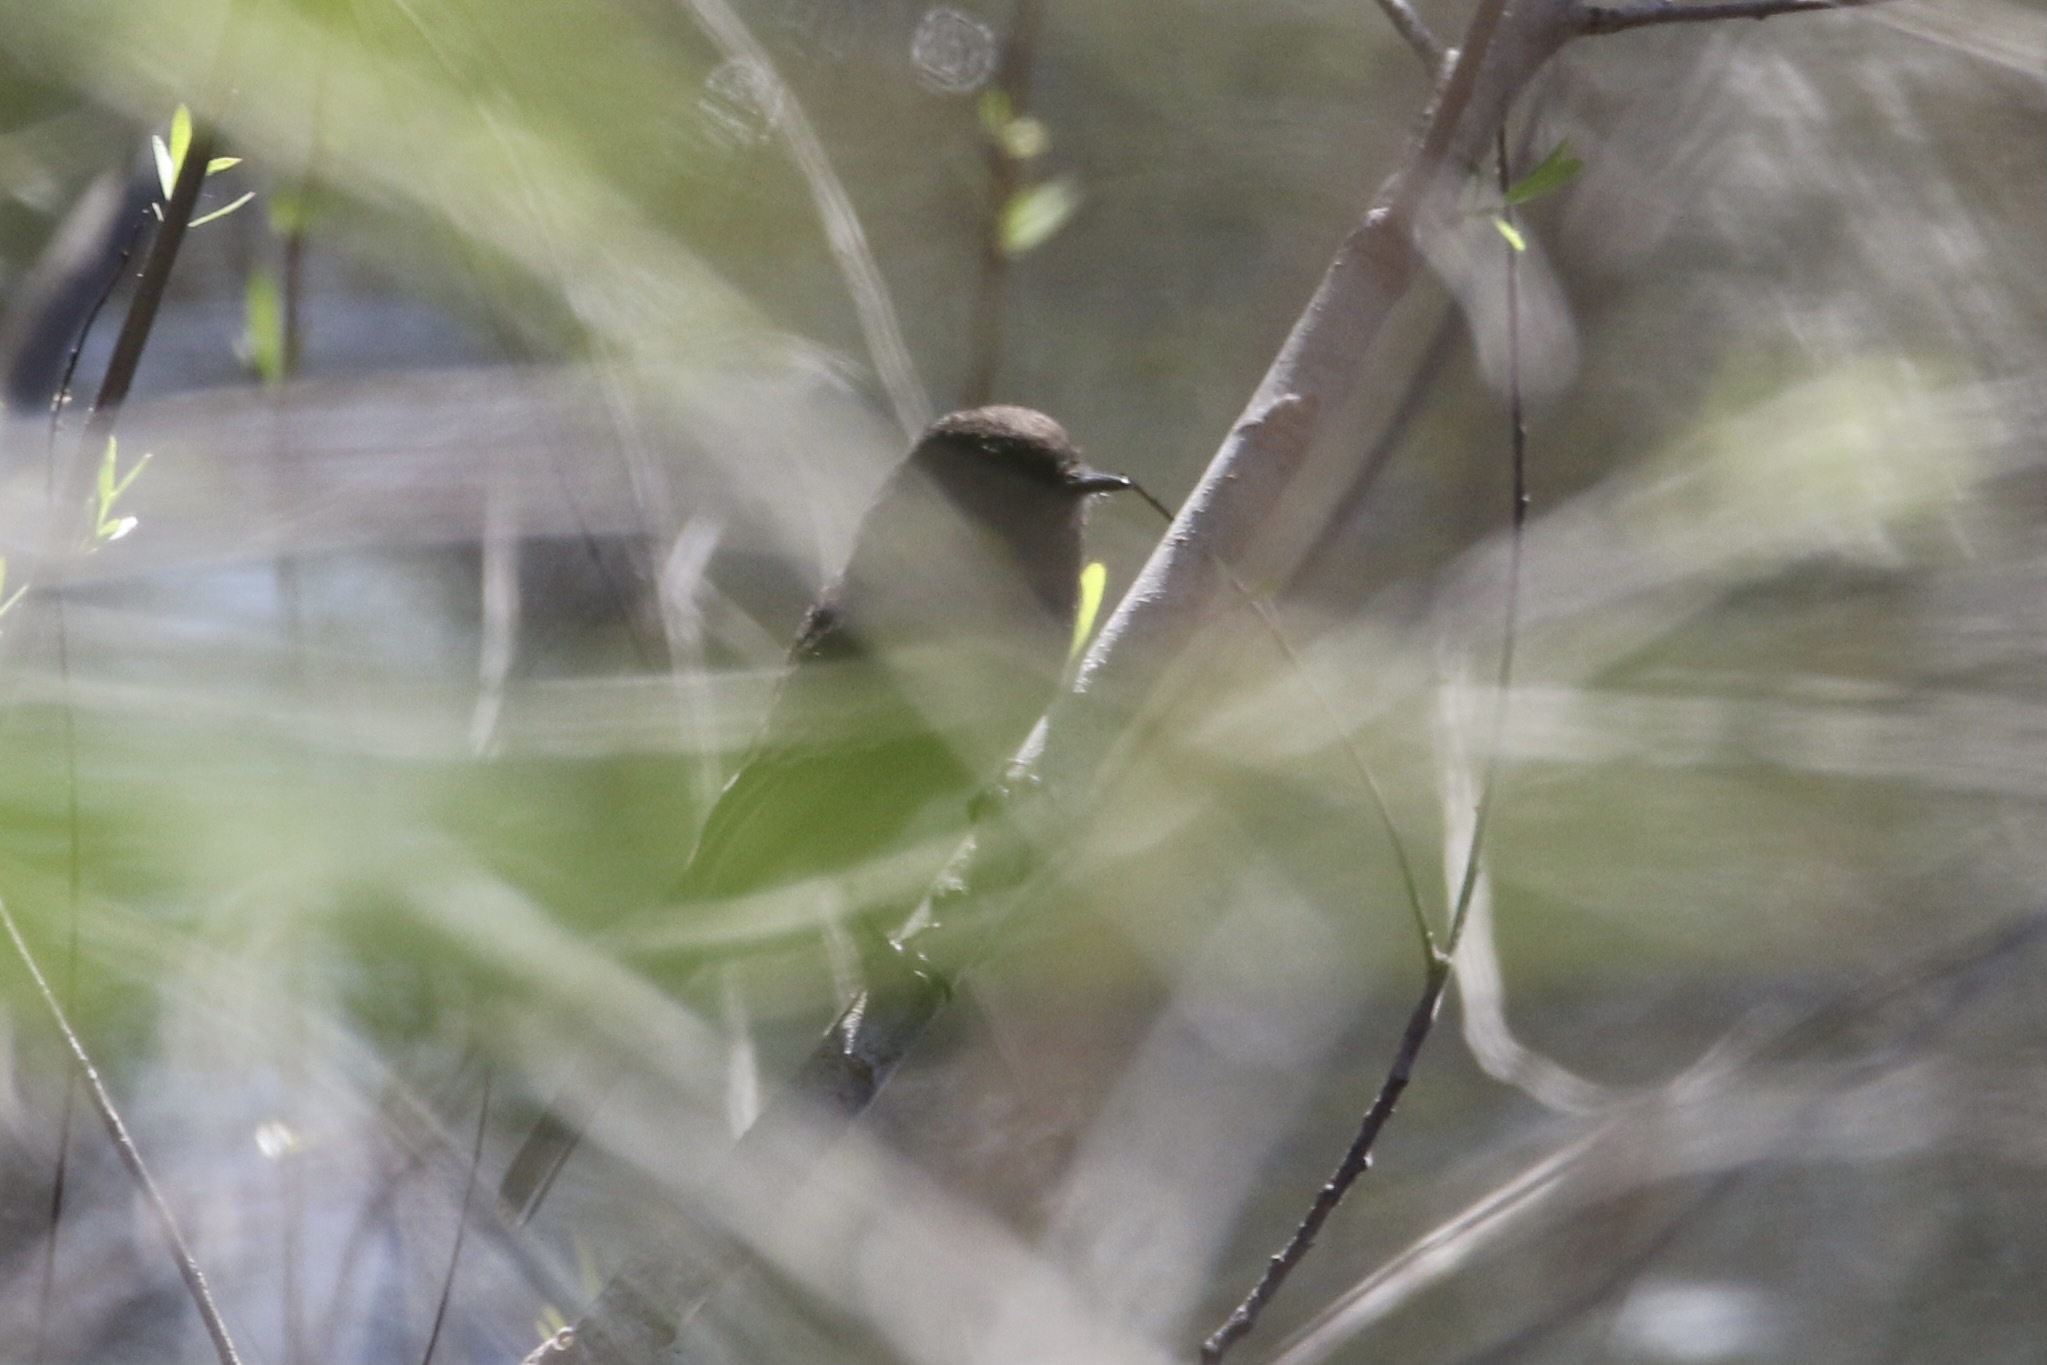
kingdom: Animalia
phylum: Chordata
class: Aves
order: Passeriformes
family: Tyrannidae
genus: Sayornis
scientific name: Sayornis nigricans
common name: Black phoebe
